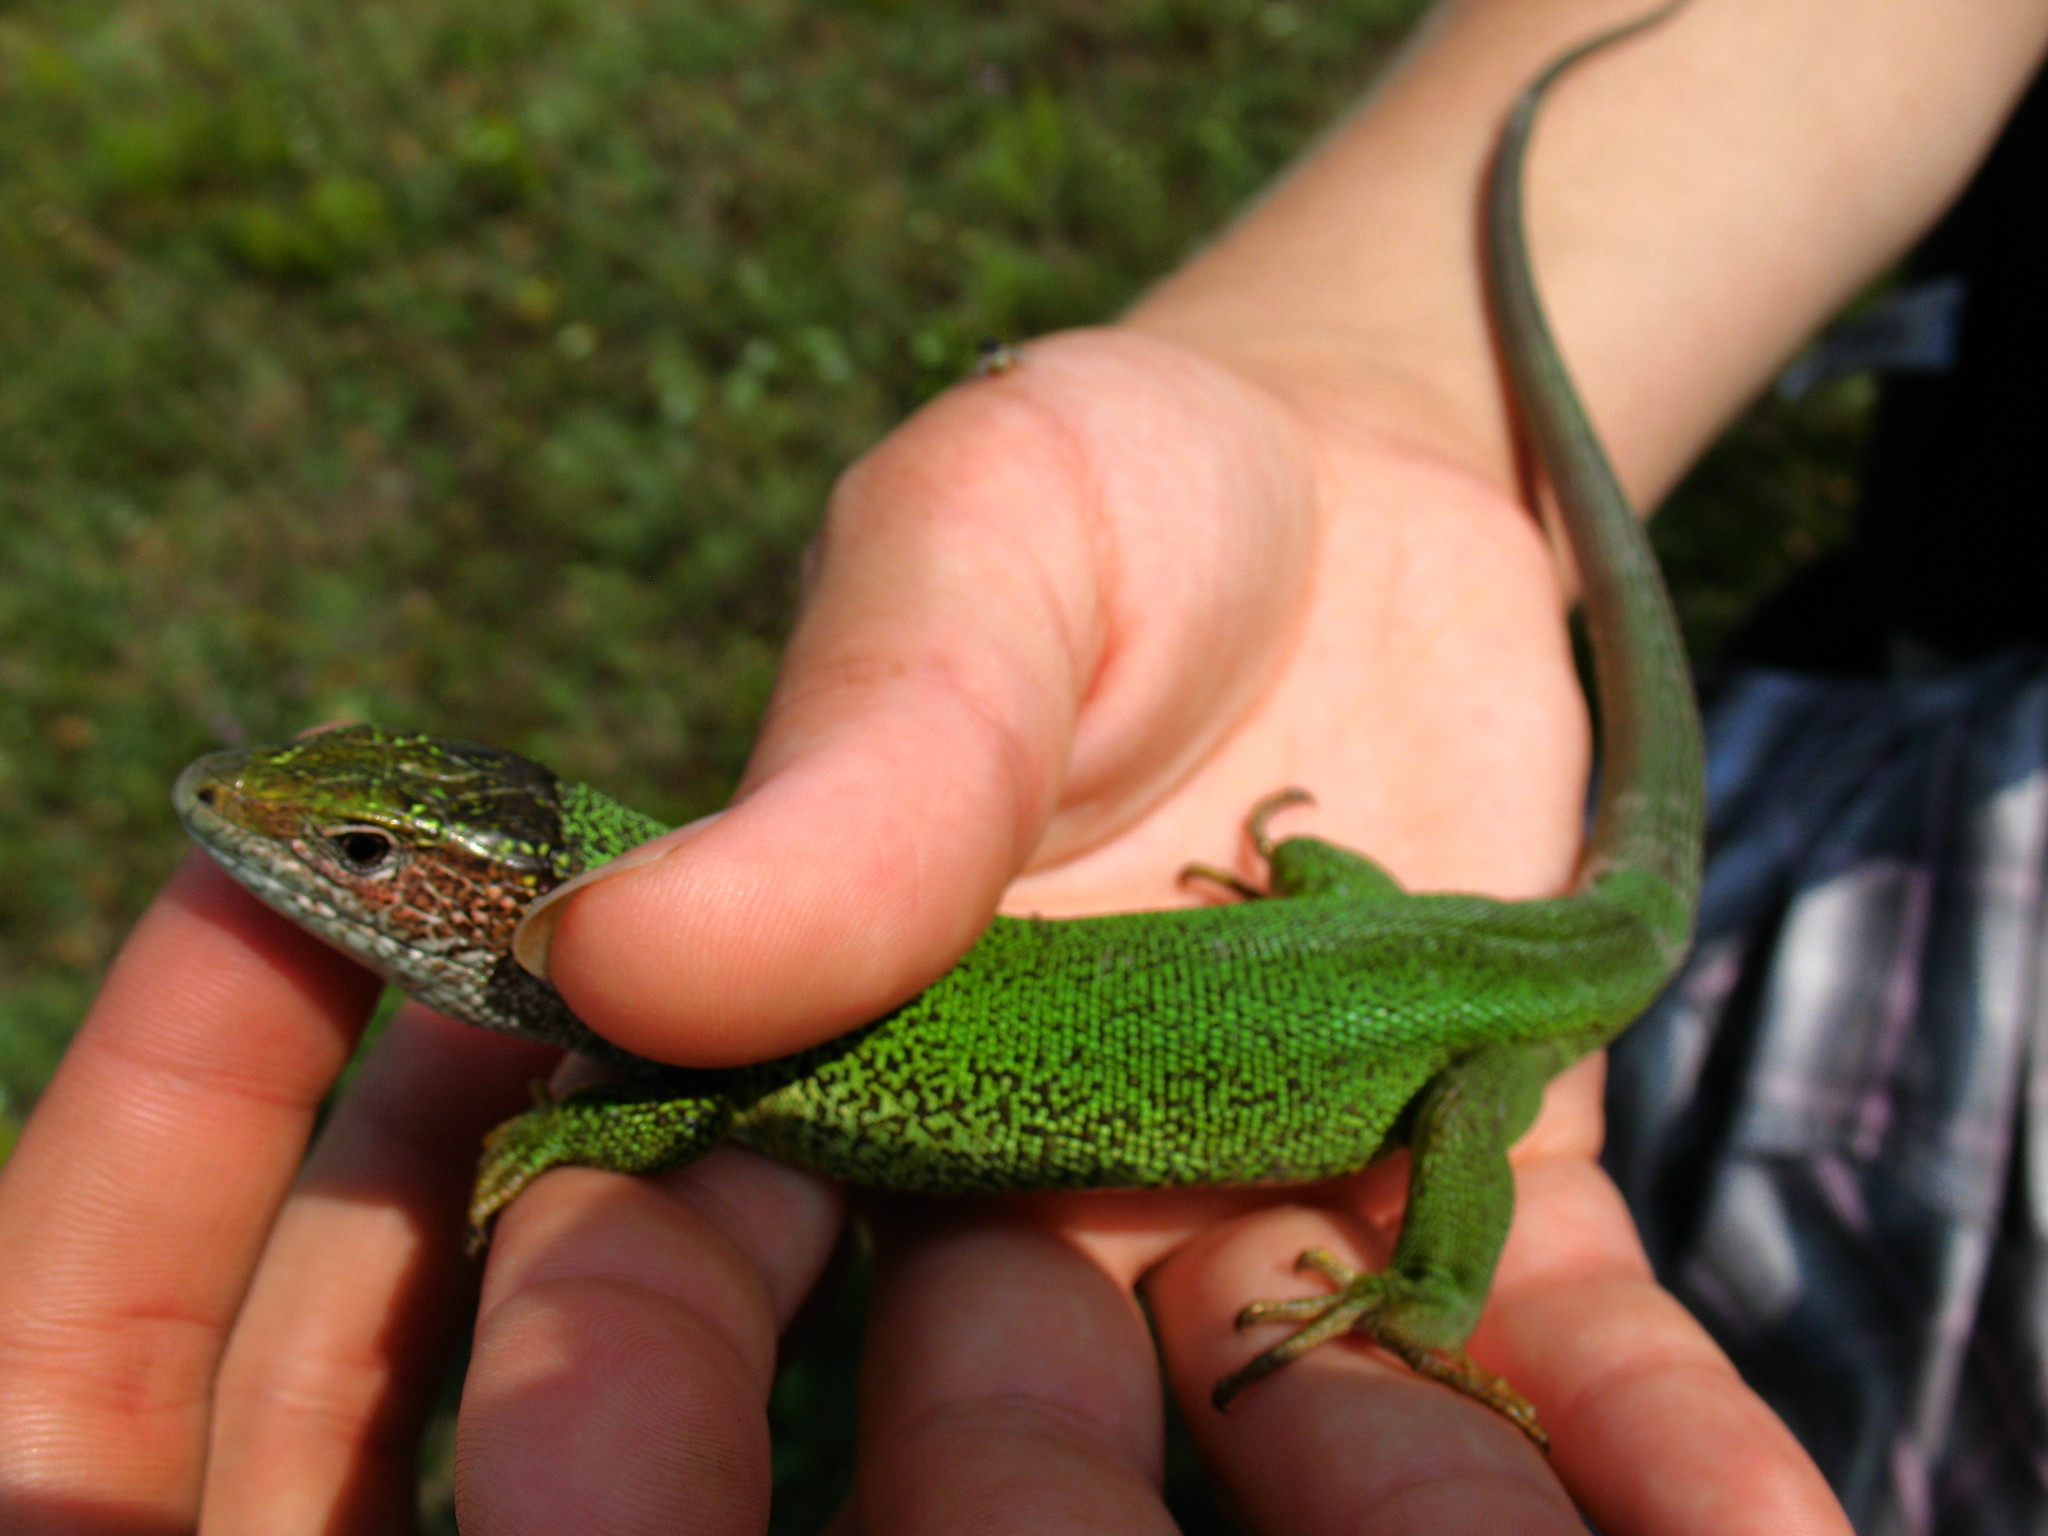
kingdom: Animalia
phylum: Chordata
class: Squamata
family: Lacertidae
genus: Lacerta
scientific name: Lacerta viridis
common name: European green lizard
